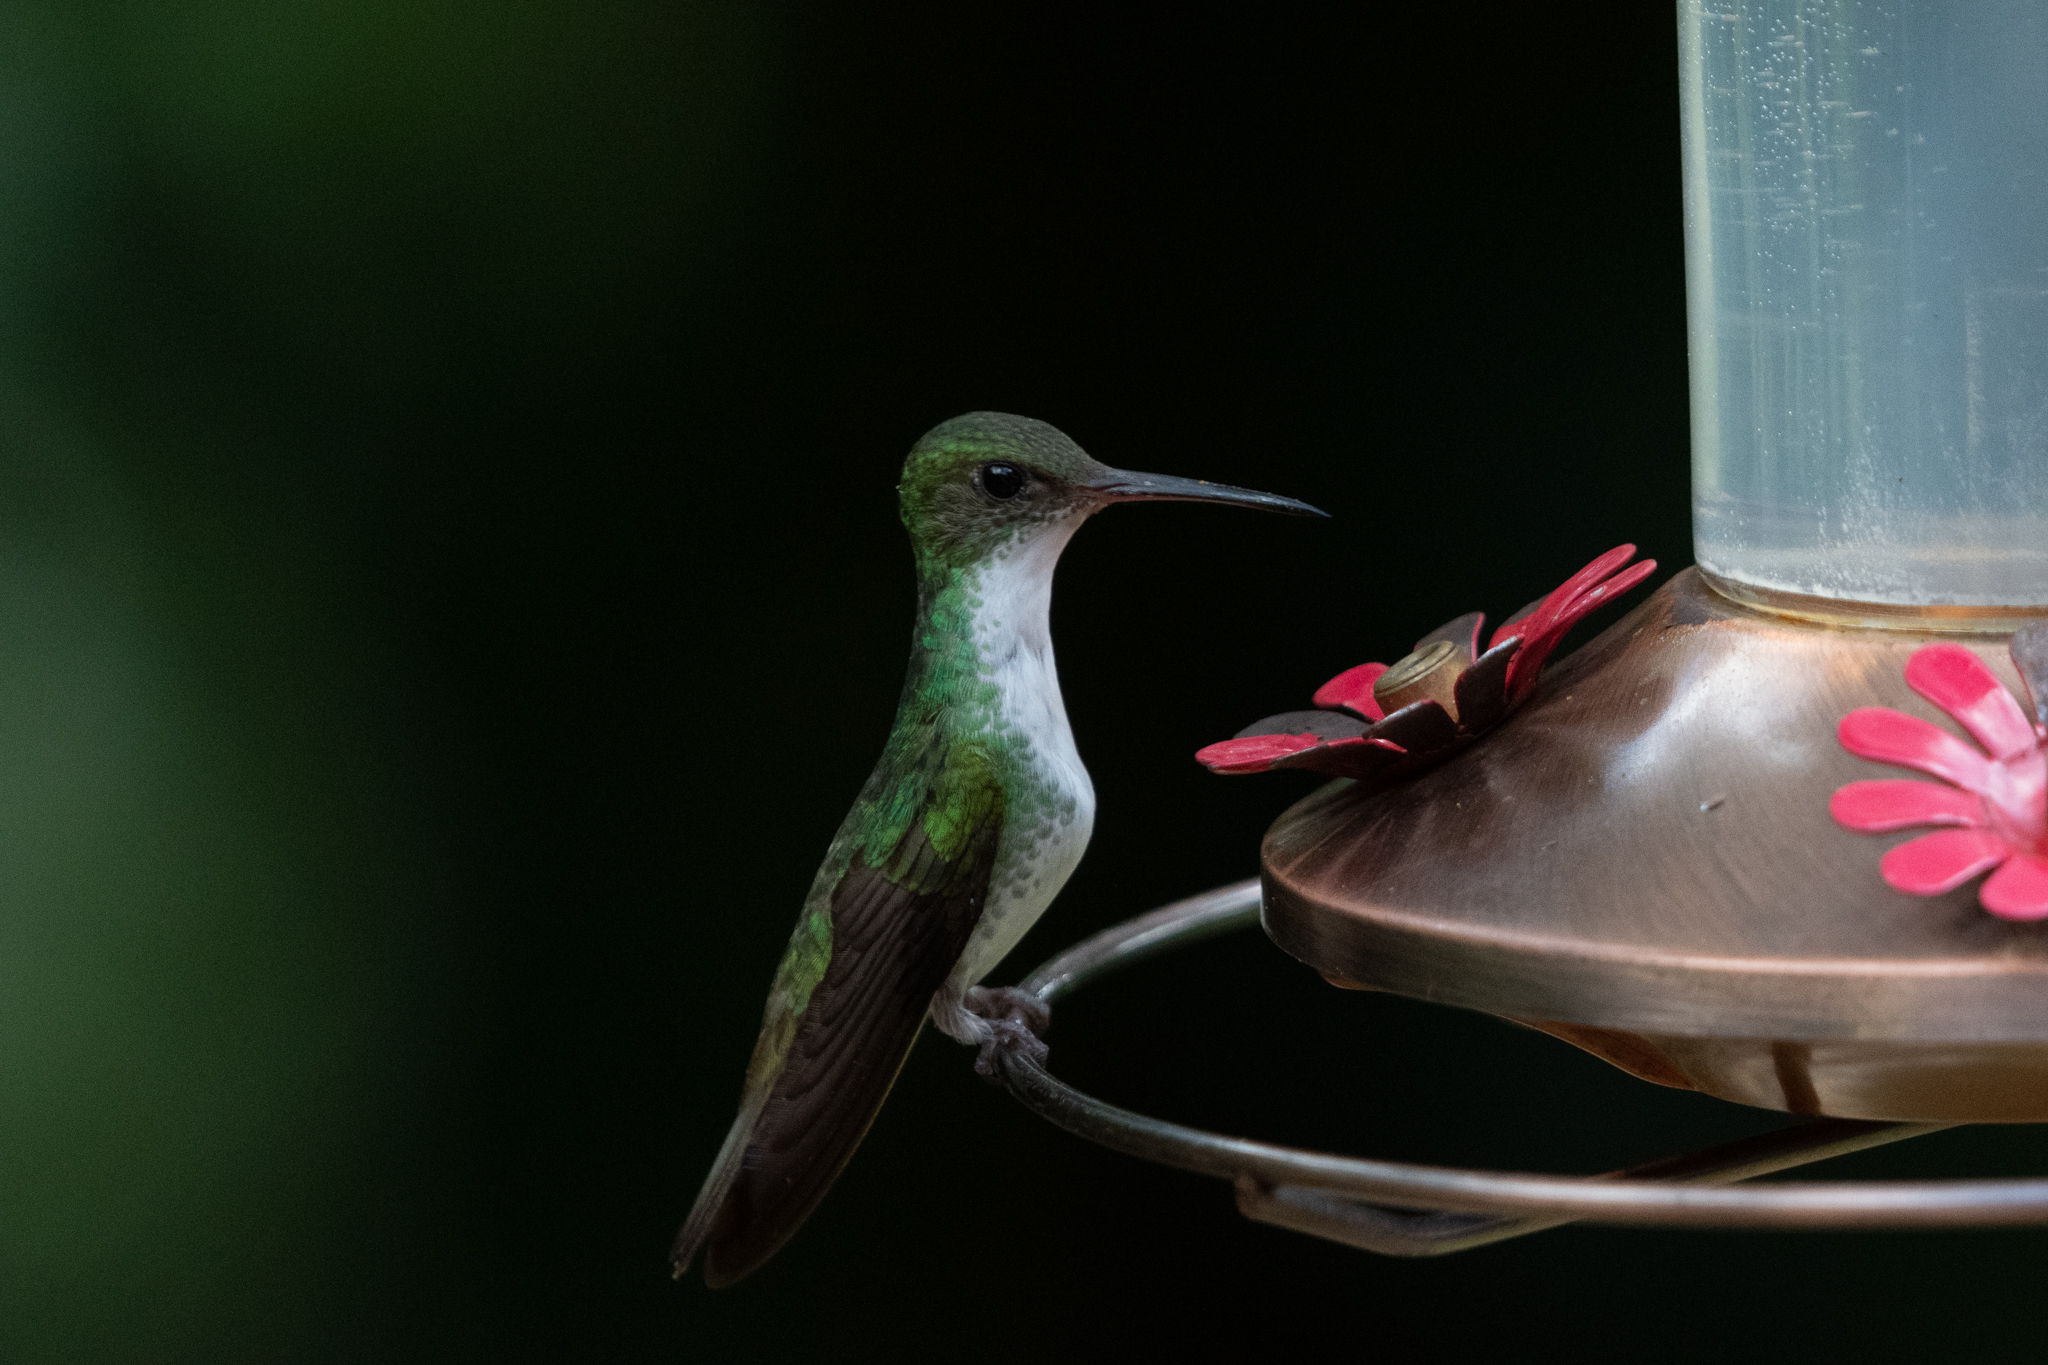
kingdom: Animalia
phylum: Chordata
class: Aves
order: Apodiformes
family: Trochilidae
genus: Chlorestes
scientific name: Chlorestes candida
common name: White-bellied emerald
